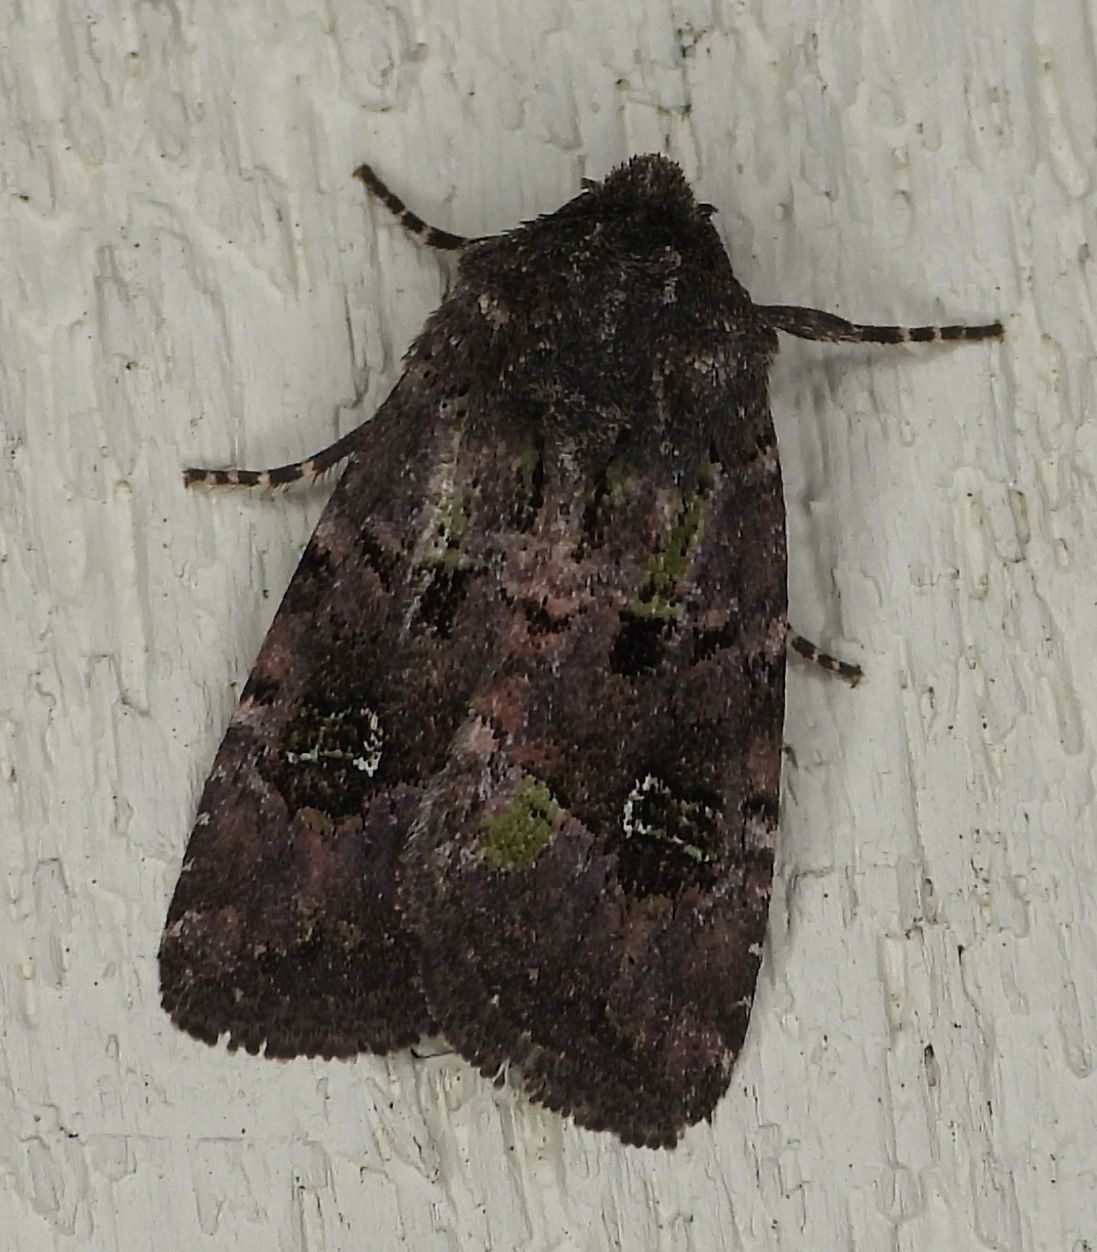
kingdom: Animalia
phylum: Arthropoda
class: Insecta
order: Lepidoptera
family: Noctuidae
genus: Lacinipolia
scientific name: Lacinipolia renigera
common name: Kidney-spotted minor
